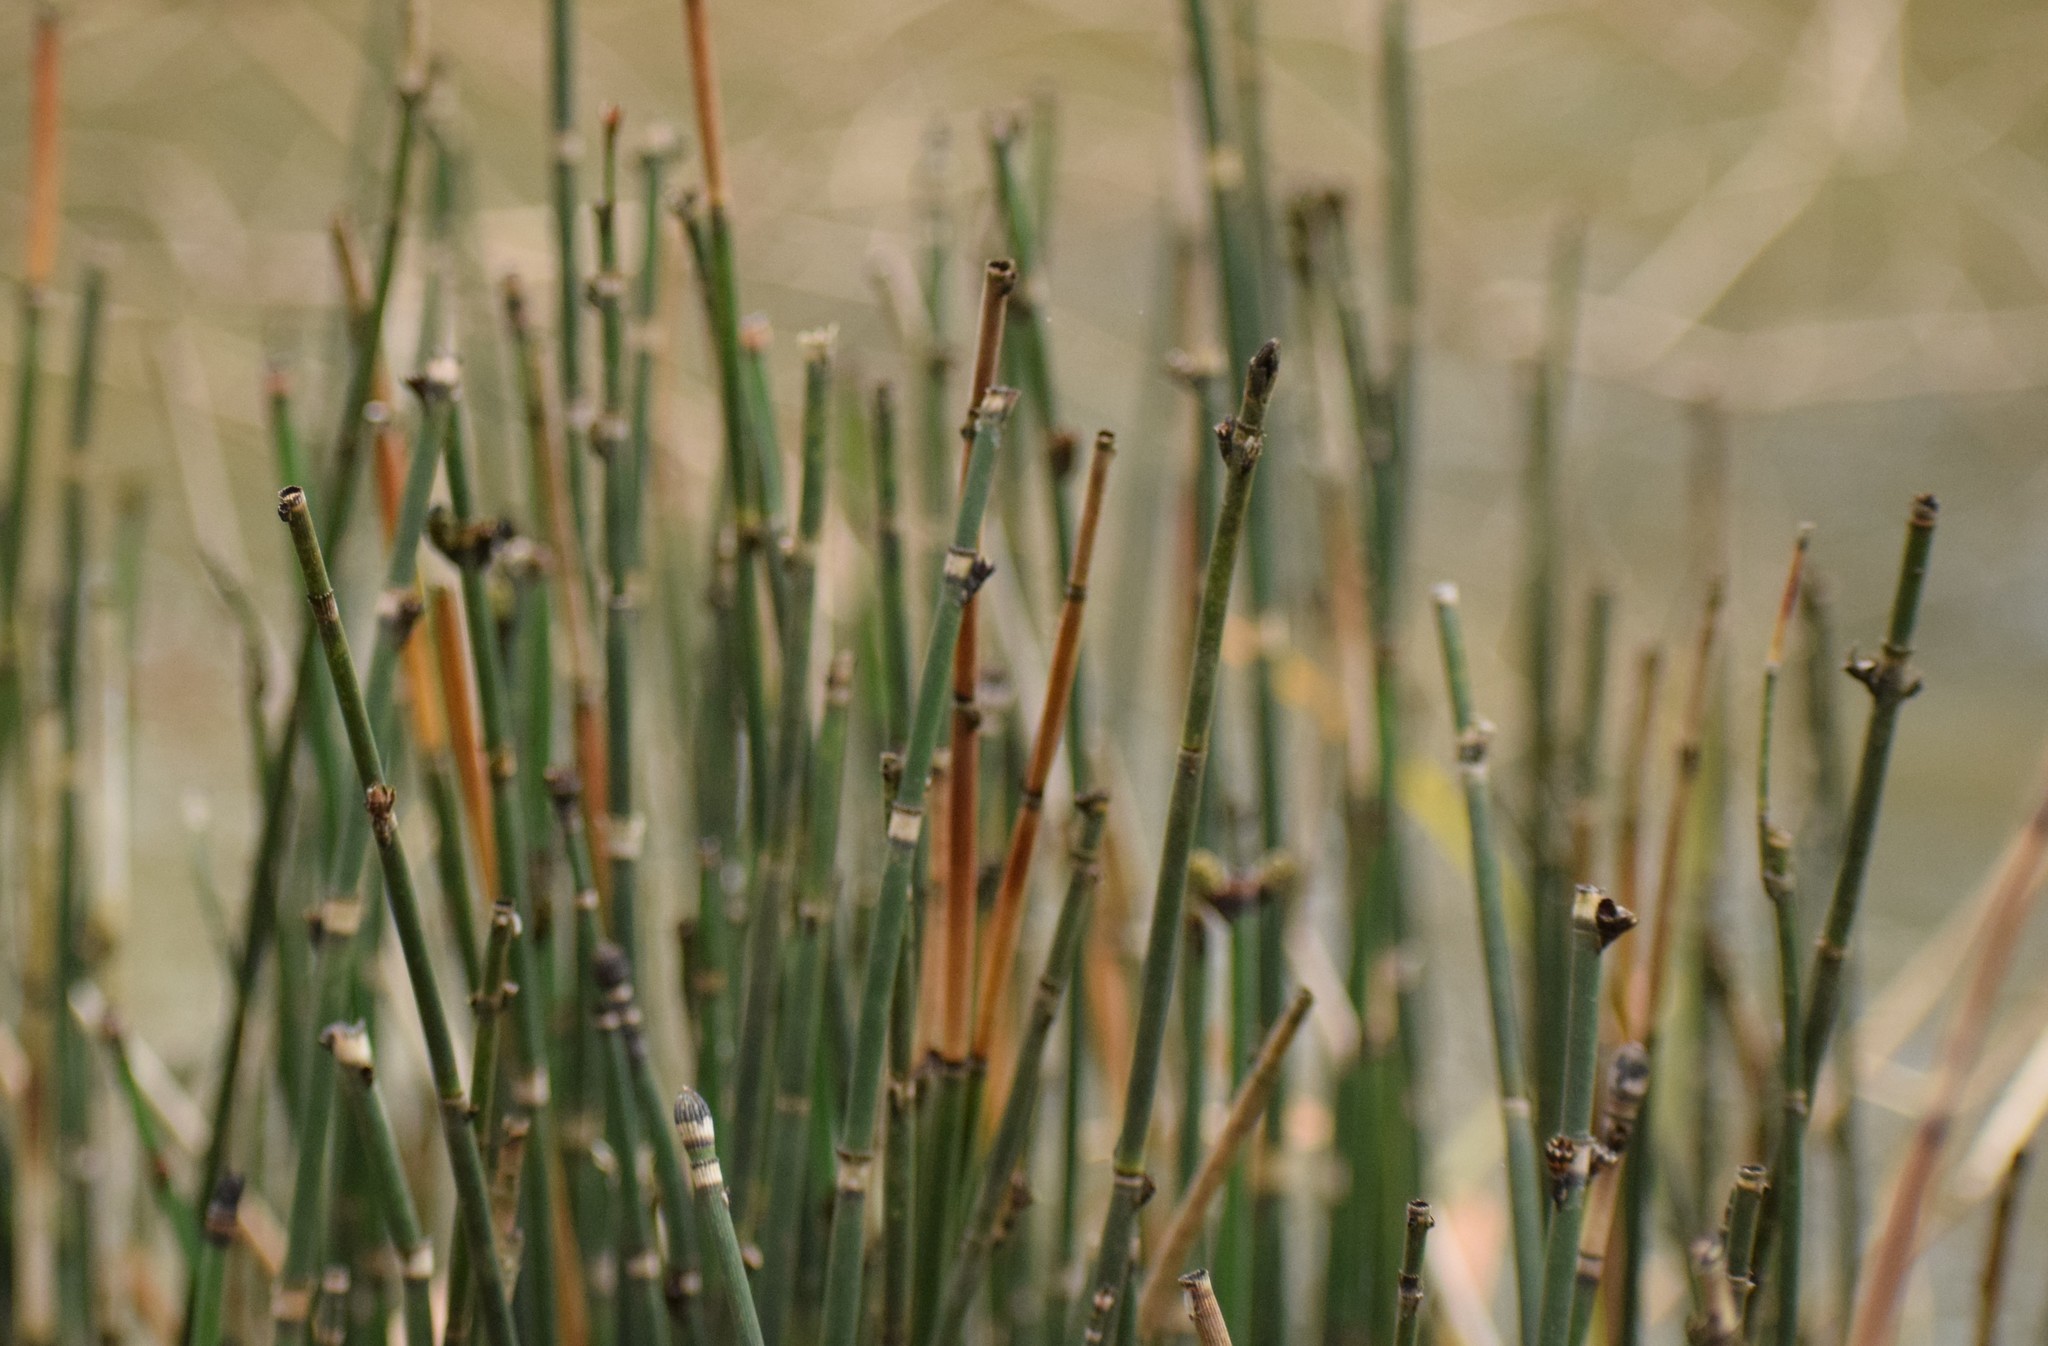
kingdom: Plantae
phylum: Tracheophyta
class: Polypodiopsida
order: Equisetales
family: Equisetaceae
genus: Equisetum
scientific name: Equisetum hyemale
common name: Rough horsetail
